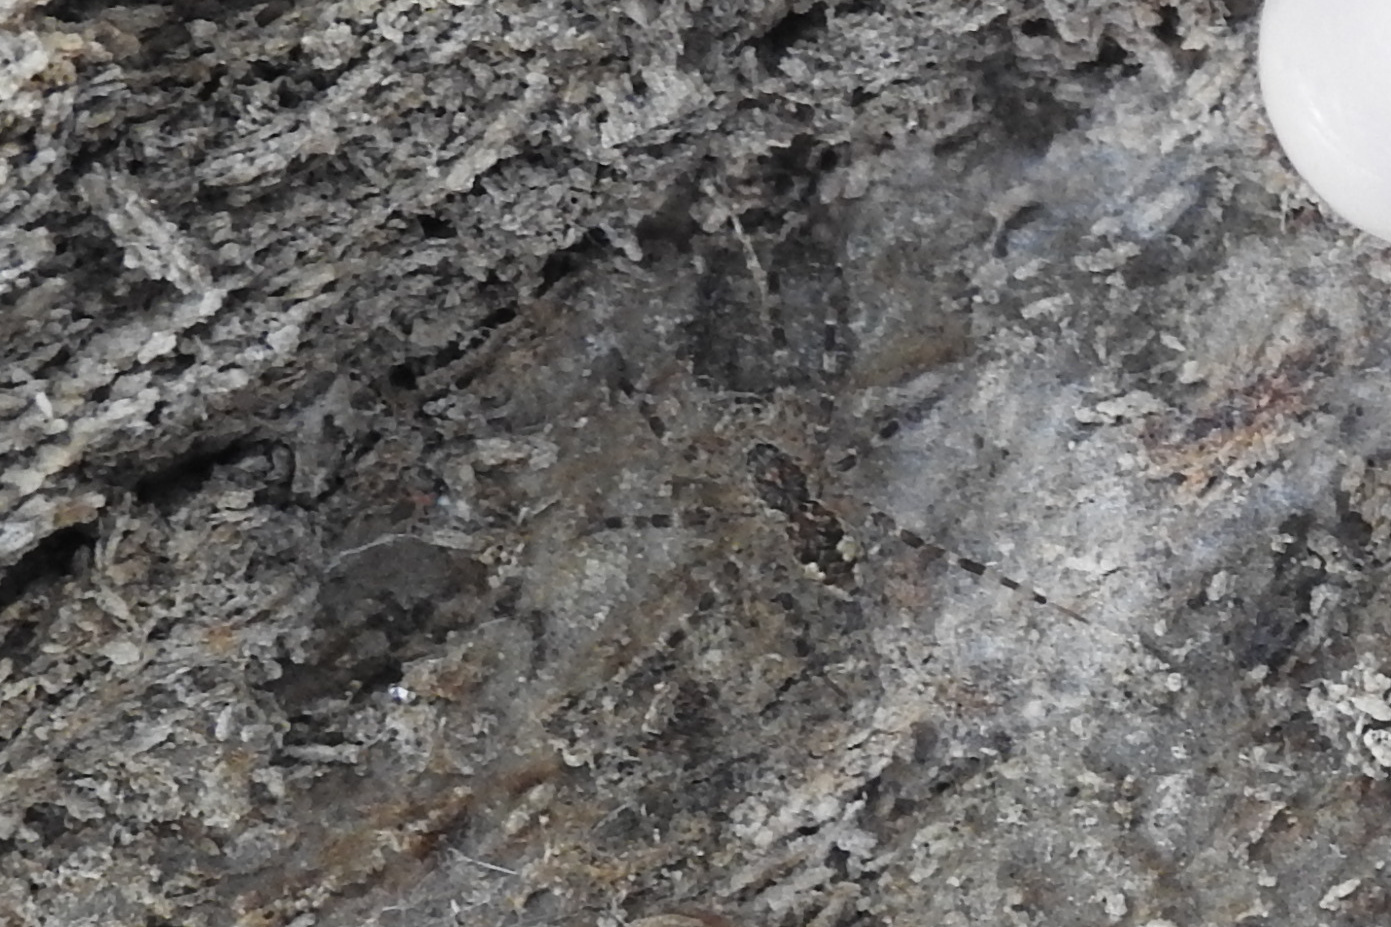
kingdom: Animalia
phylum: Arthropoda
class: Arachnida
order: Araneae
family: Pisauridae
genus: Dolomedes
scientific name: Dolomedes tenebrosus
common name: Dark fishing spider
